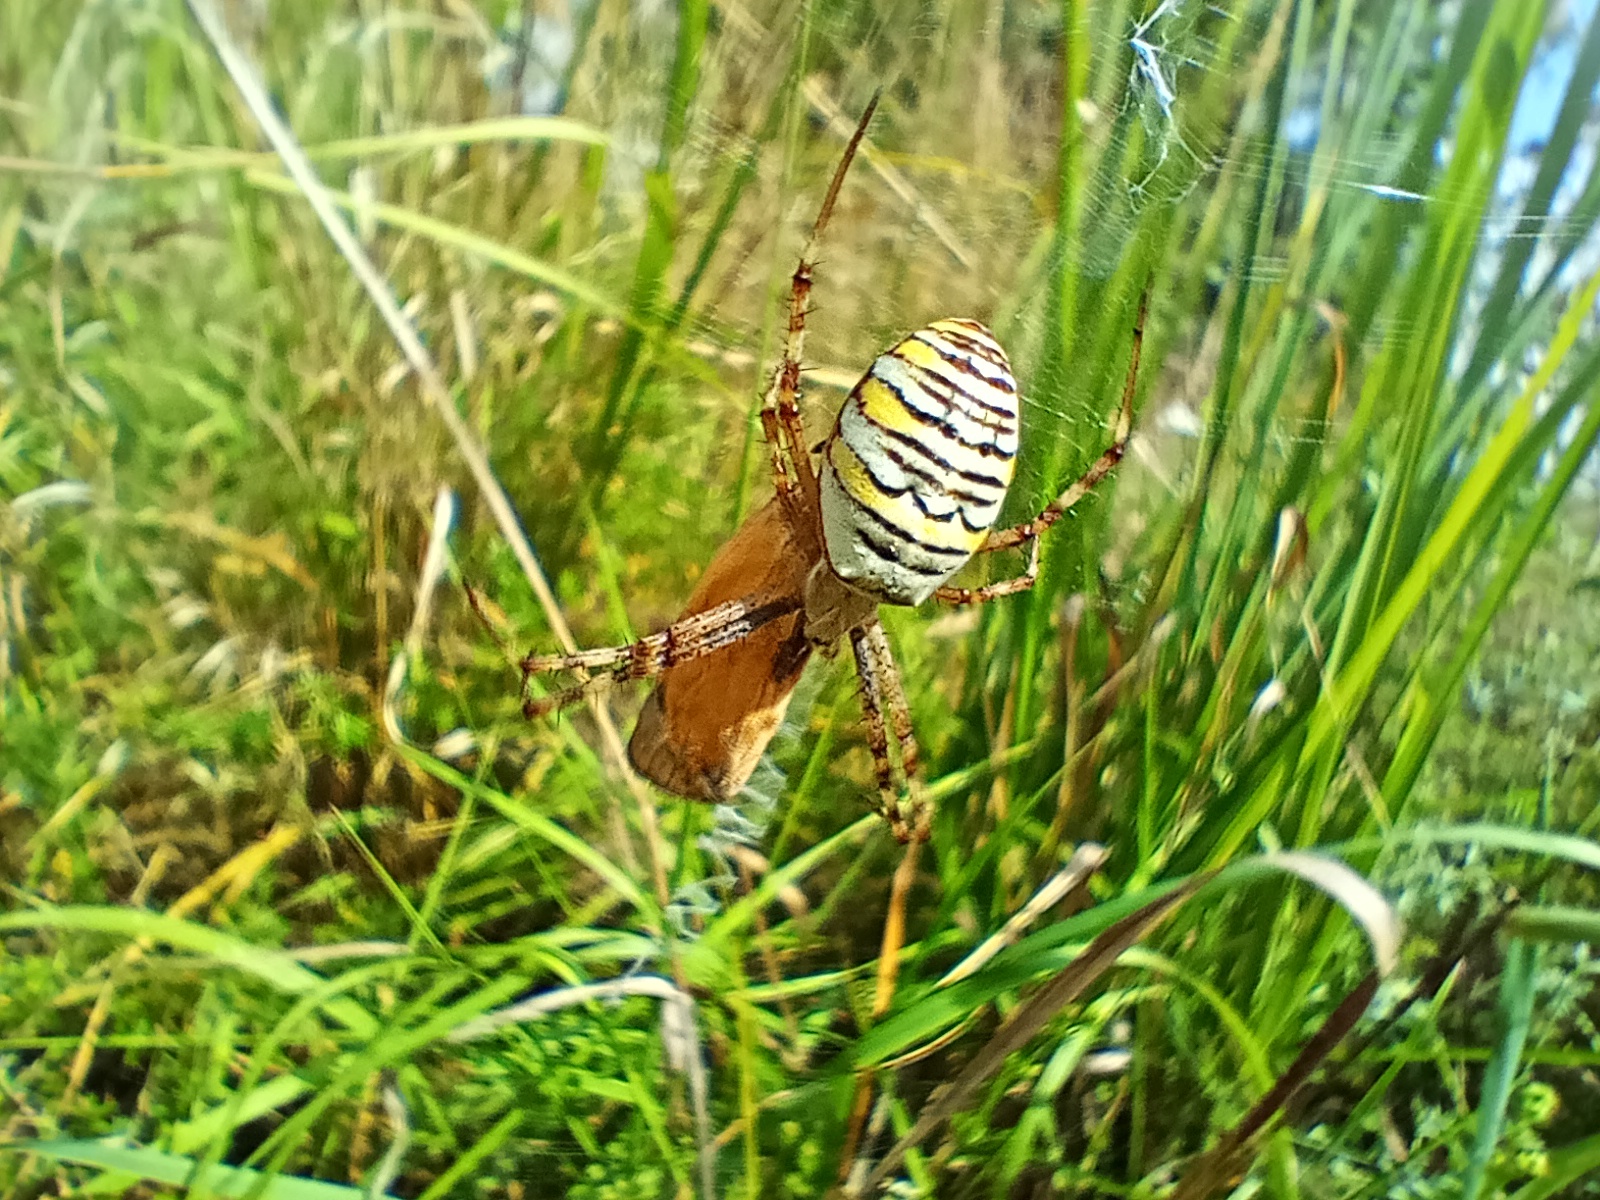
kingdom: Animalia
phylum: Arthropoda
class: Arachnida
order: Araneae
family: Araneidae
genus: Argiope
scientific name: Argiope bruennichi
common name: Wasp spider
